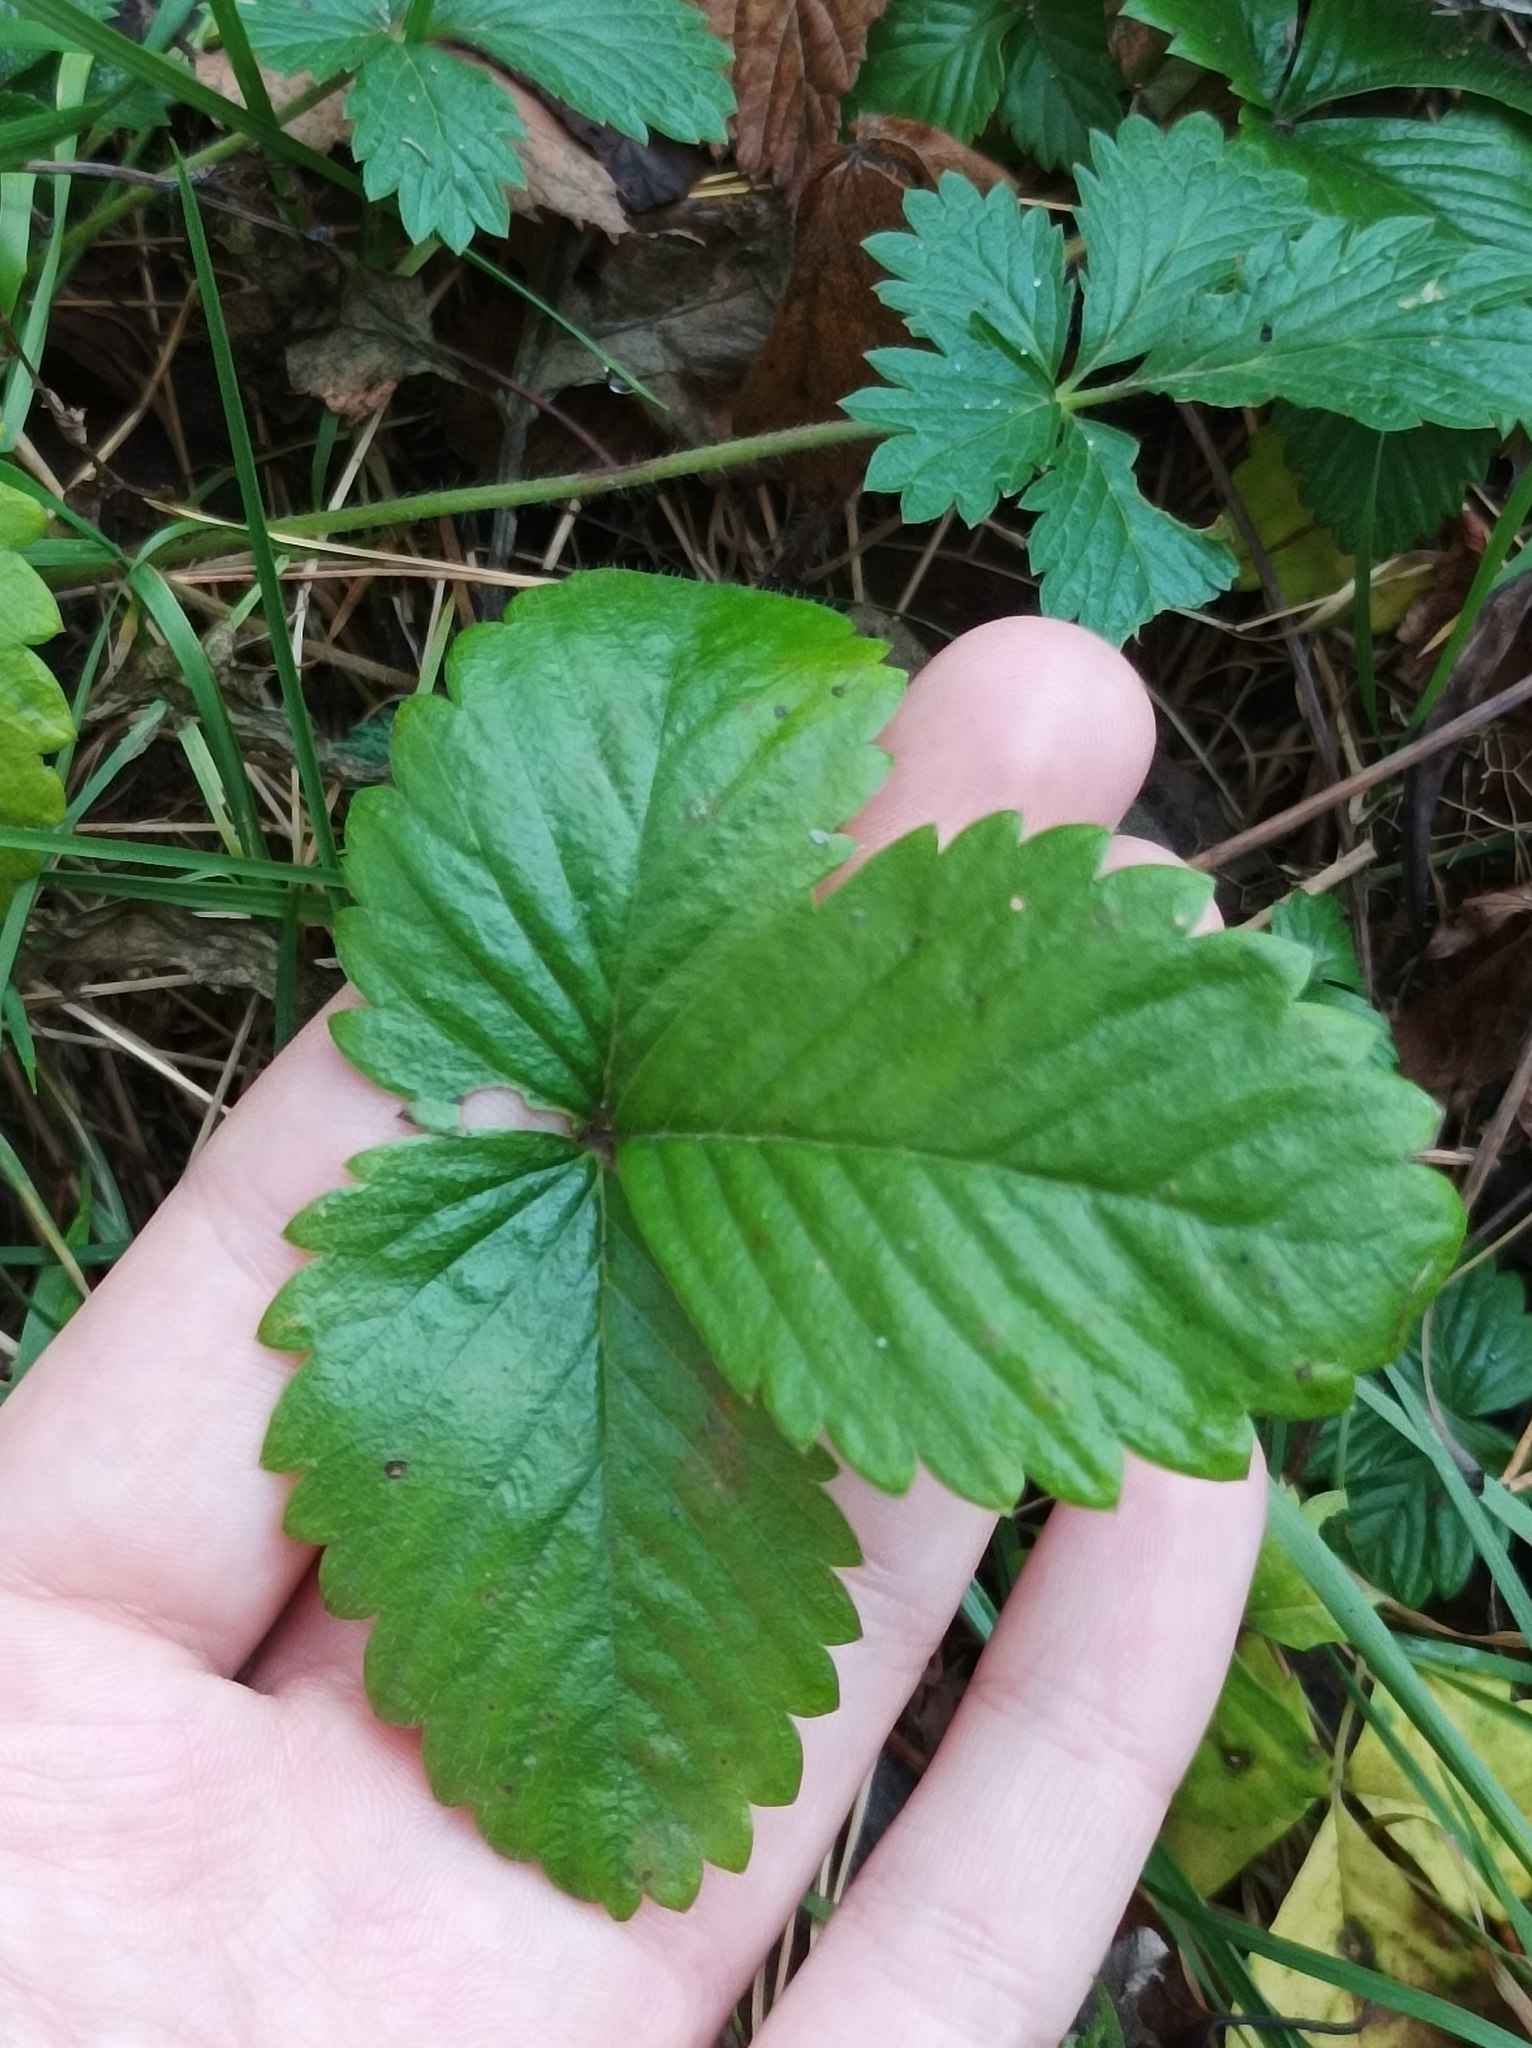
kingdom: Plantae
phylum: Tracheophyta
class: Magnoliopsida
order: Rosales
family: Rosaceae
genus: Fragaria
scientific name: Fragaria vesca
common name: Wild strawberry
